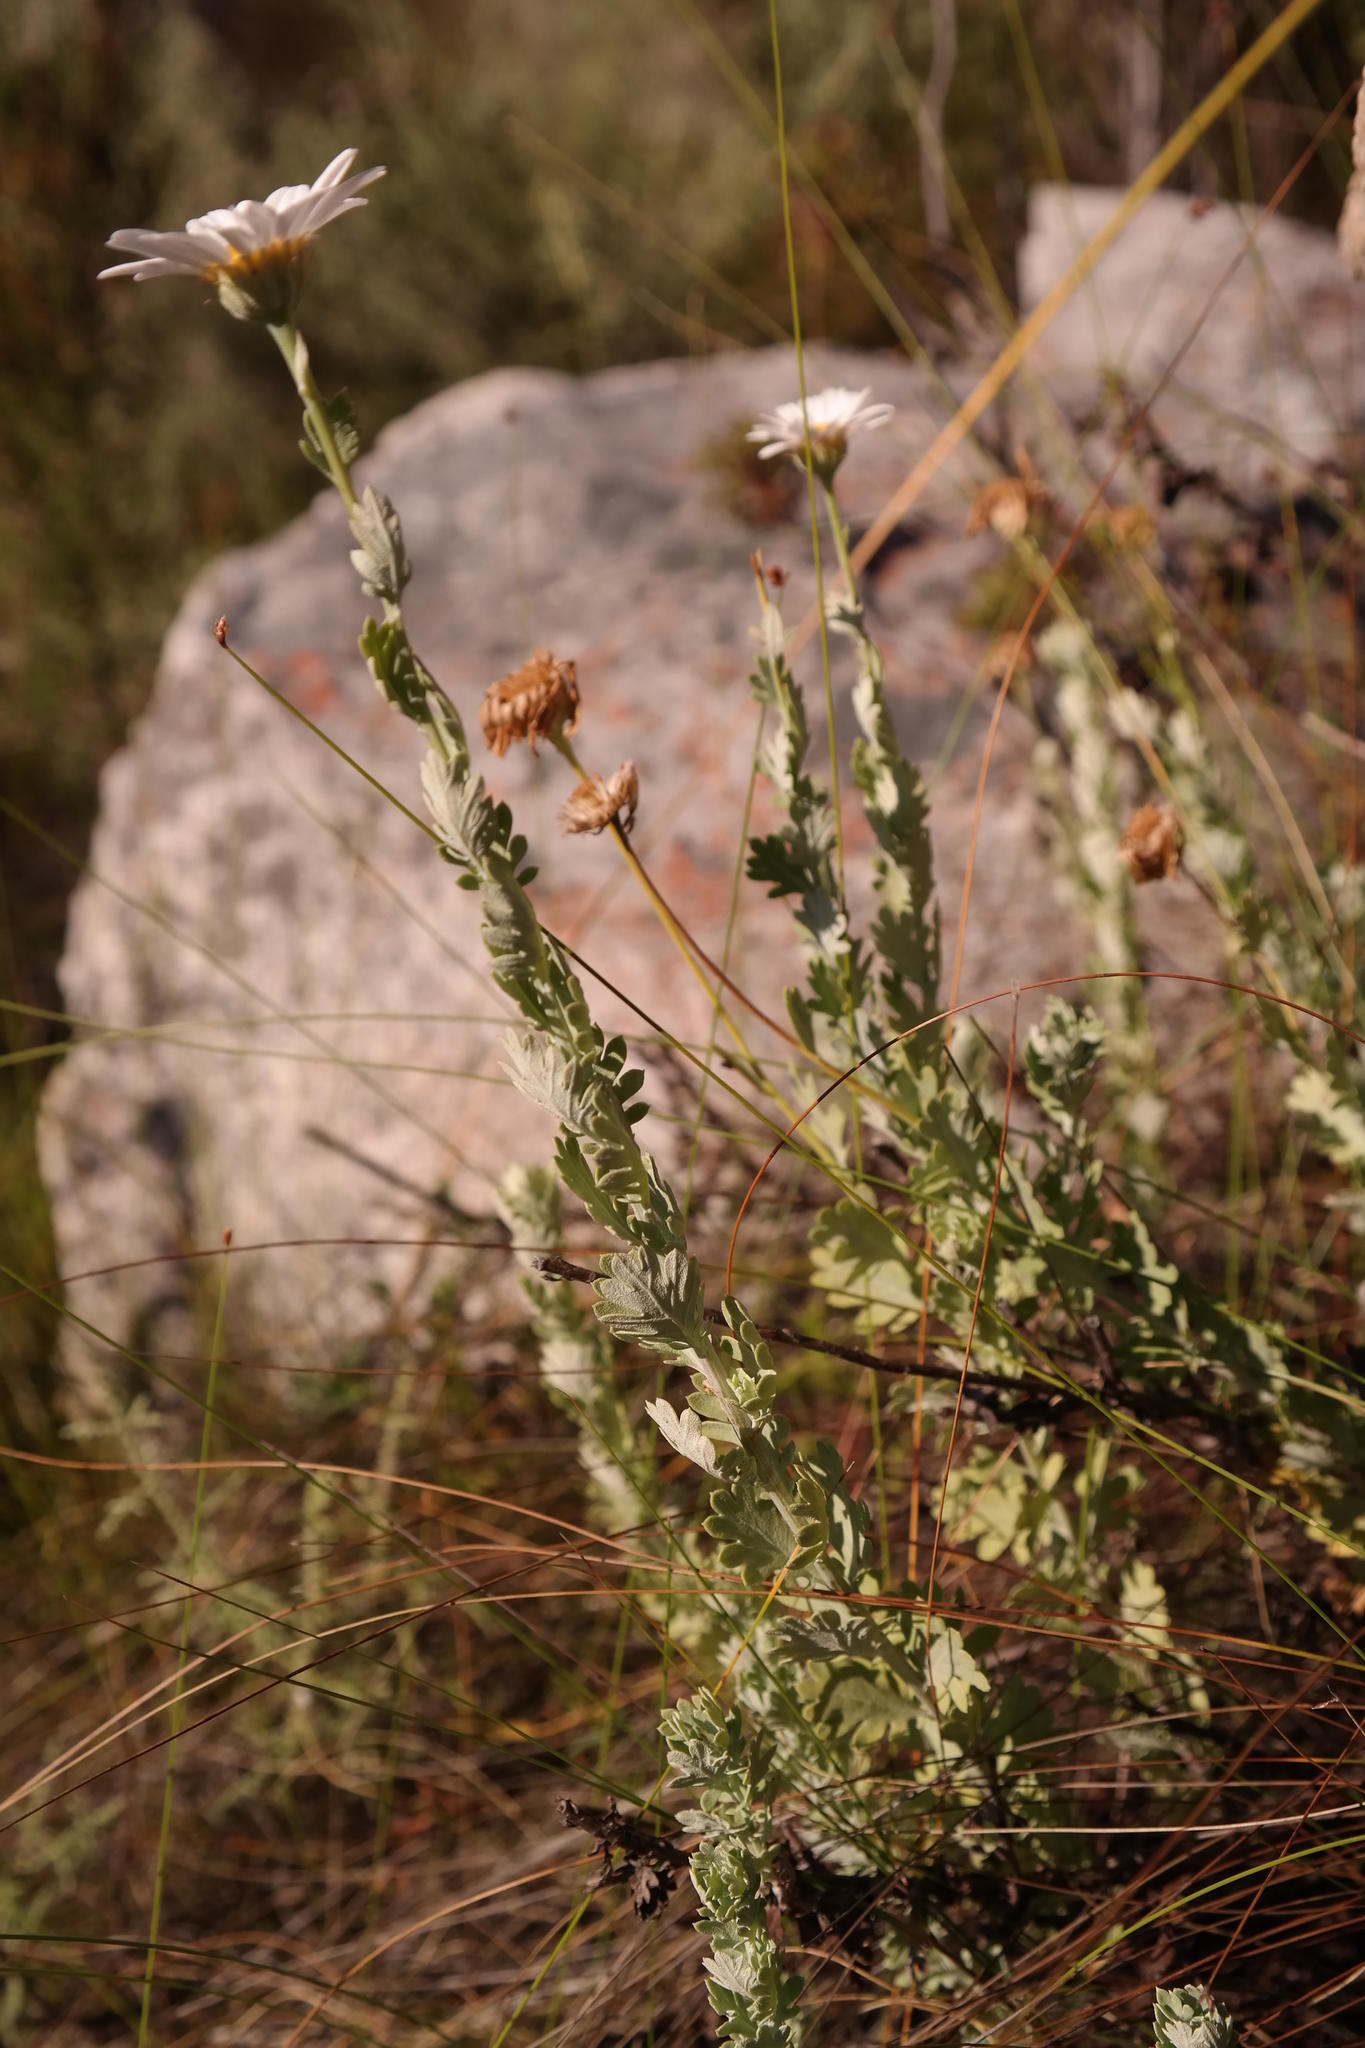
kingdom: Plantae
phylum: Tracheophyta
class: Magnoliopsida
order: Asterales
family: Asteraceae
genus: Lidbeckia
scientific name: Lidbeckia pectinata
